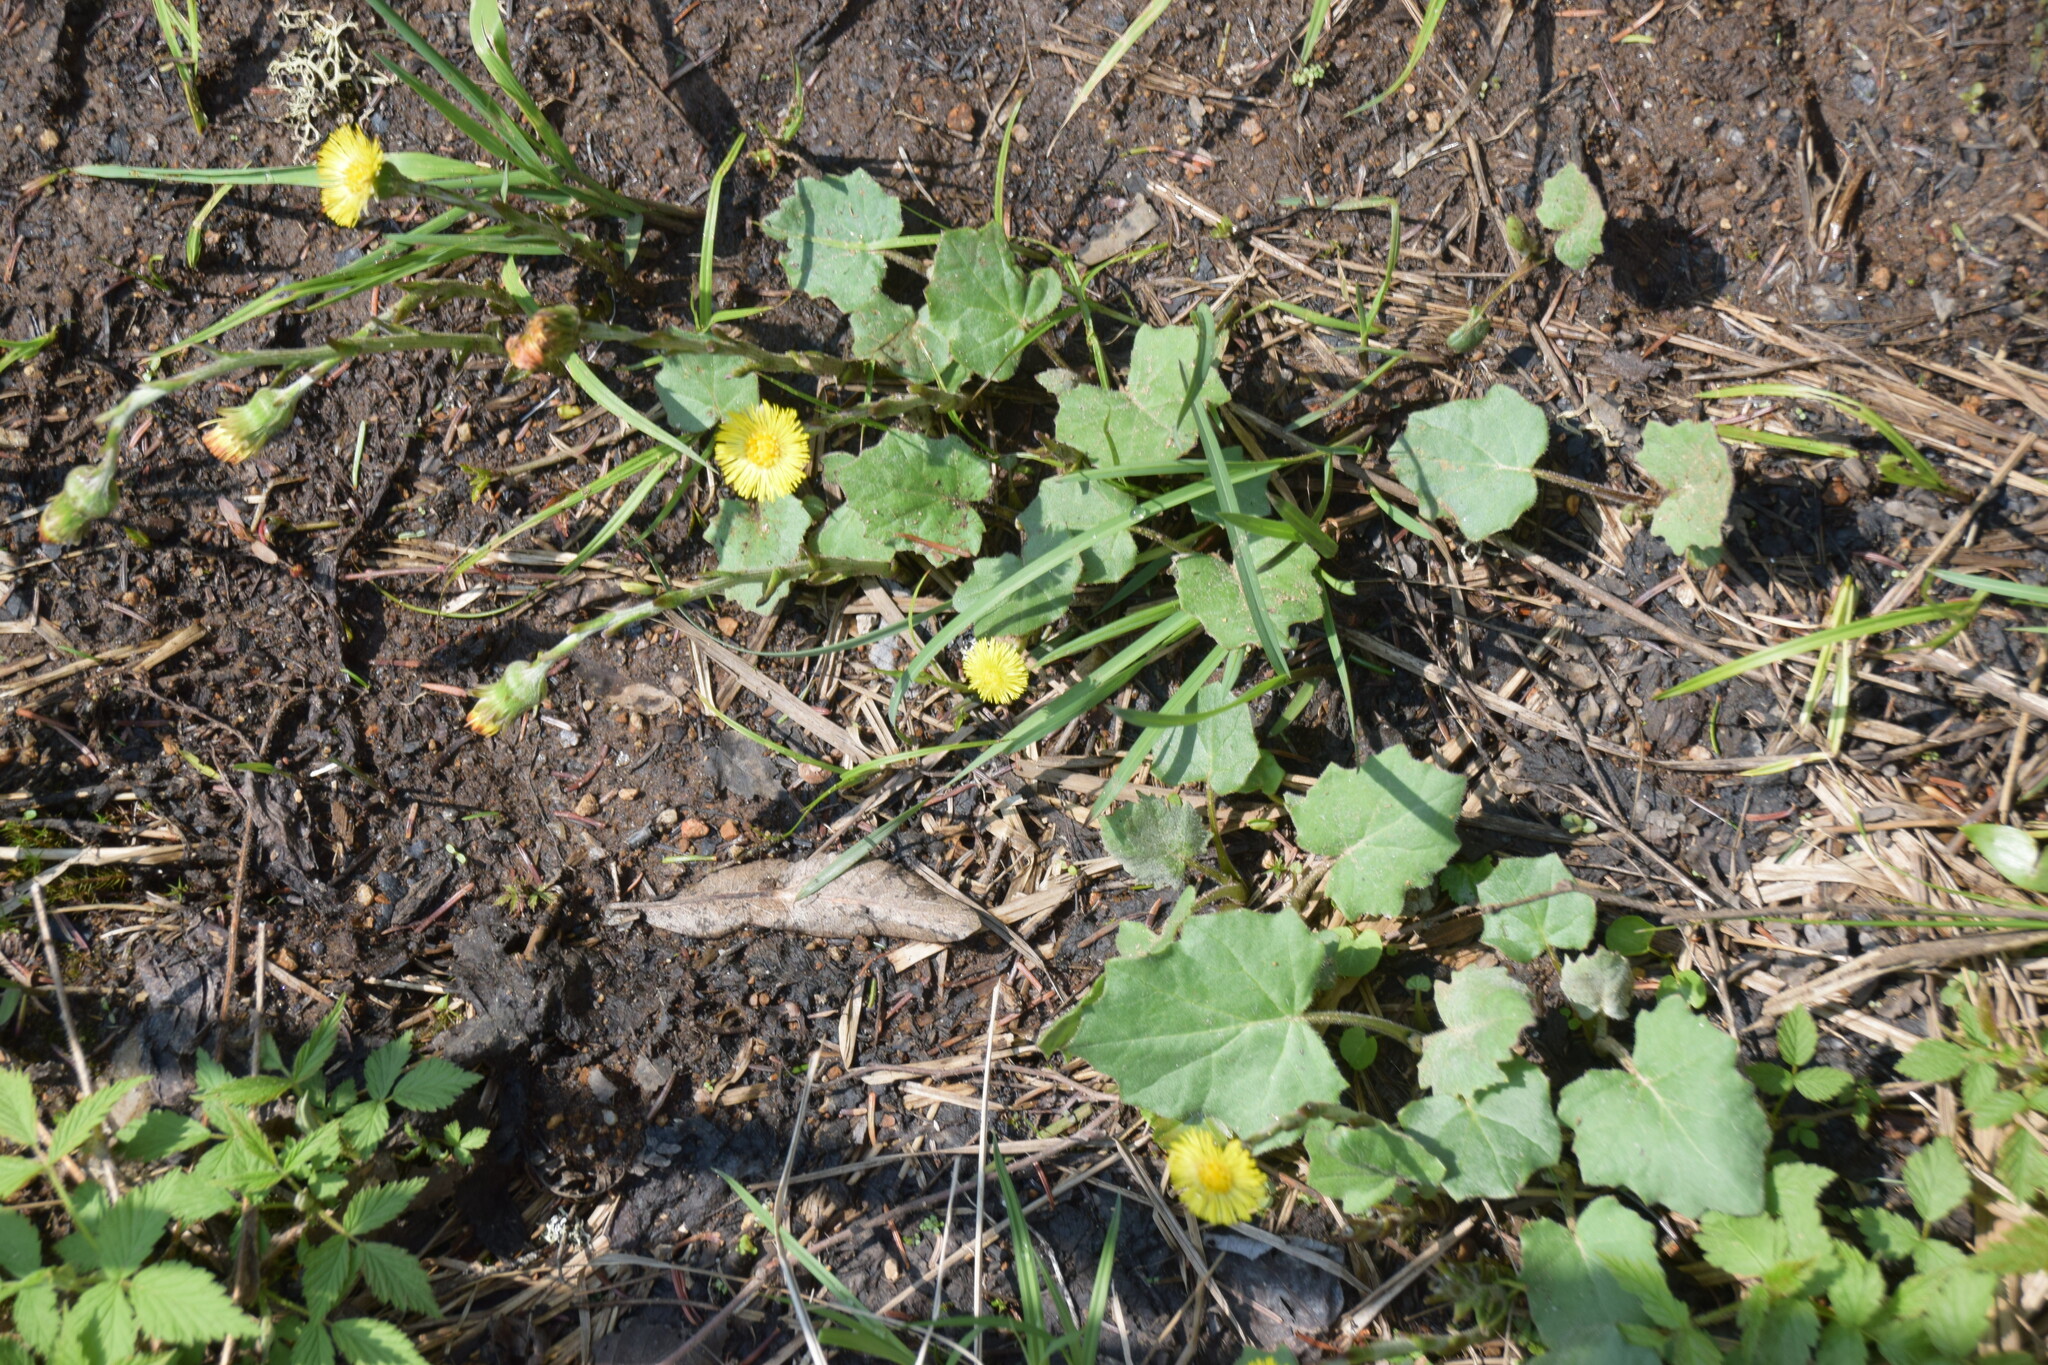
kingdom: Plantae
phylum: Tracheophyta
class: Magnoliopsida
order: Asterales
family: Asteraceae
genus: Tussilago
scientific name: Tussilago farfara
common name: Coltsfoot
